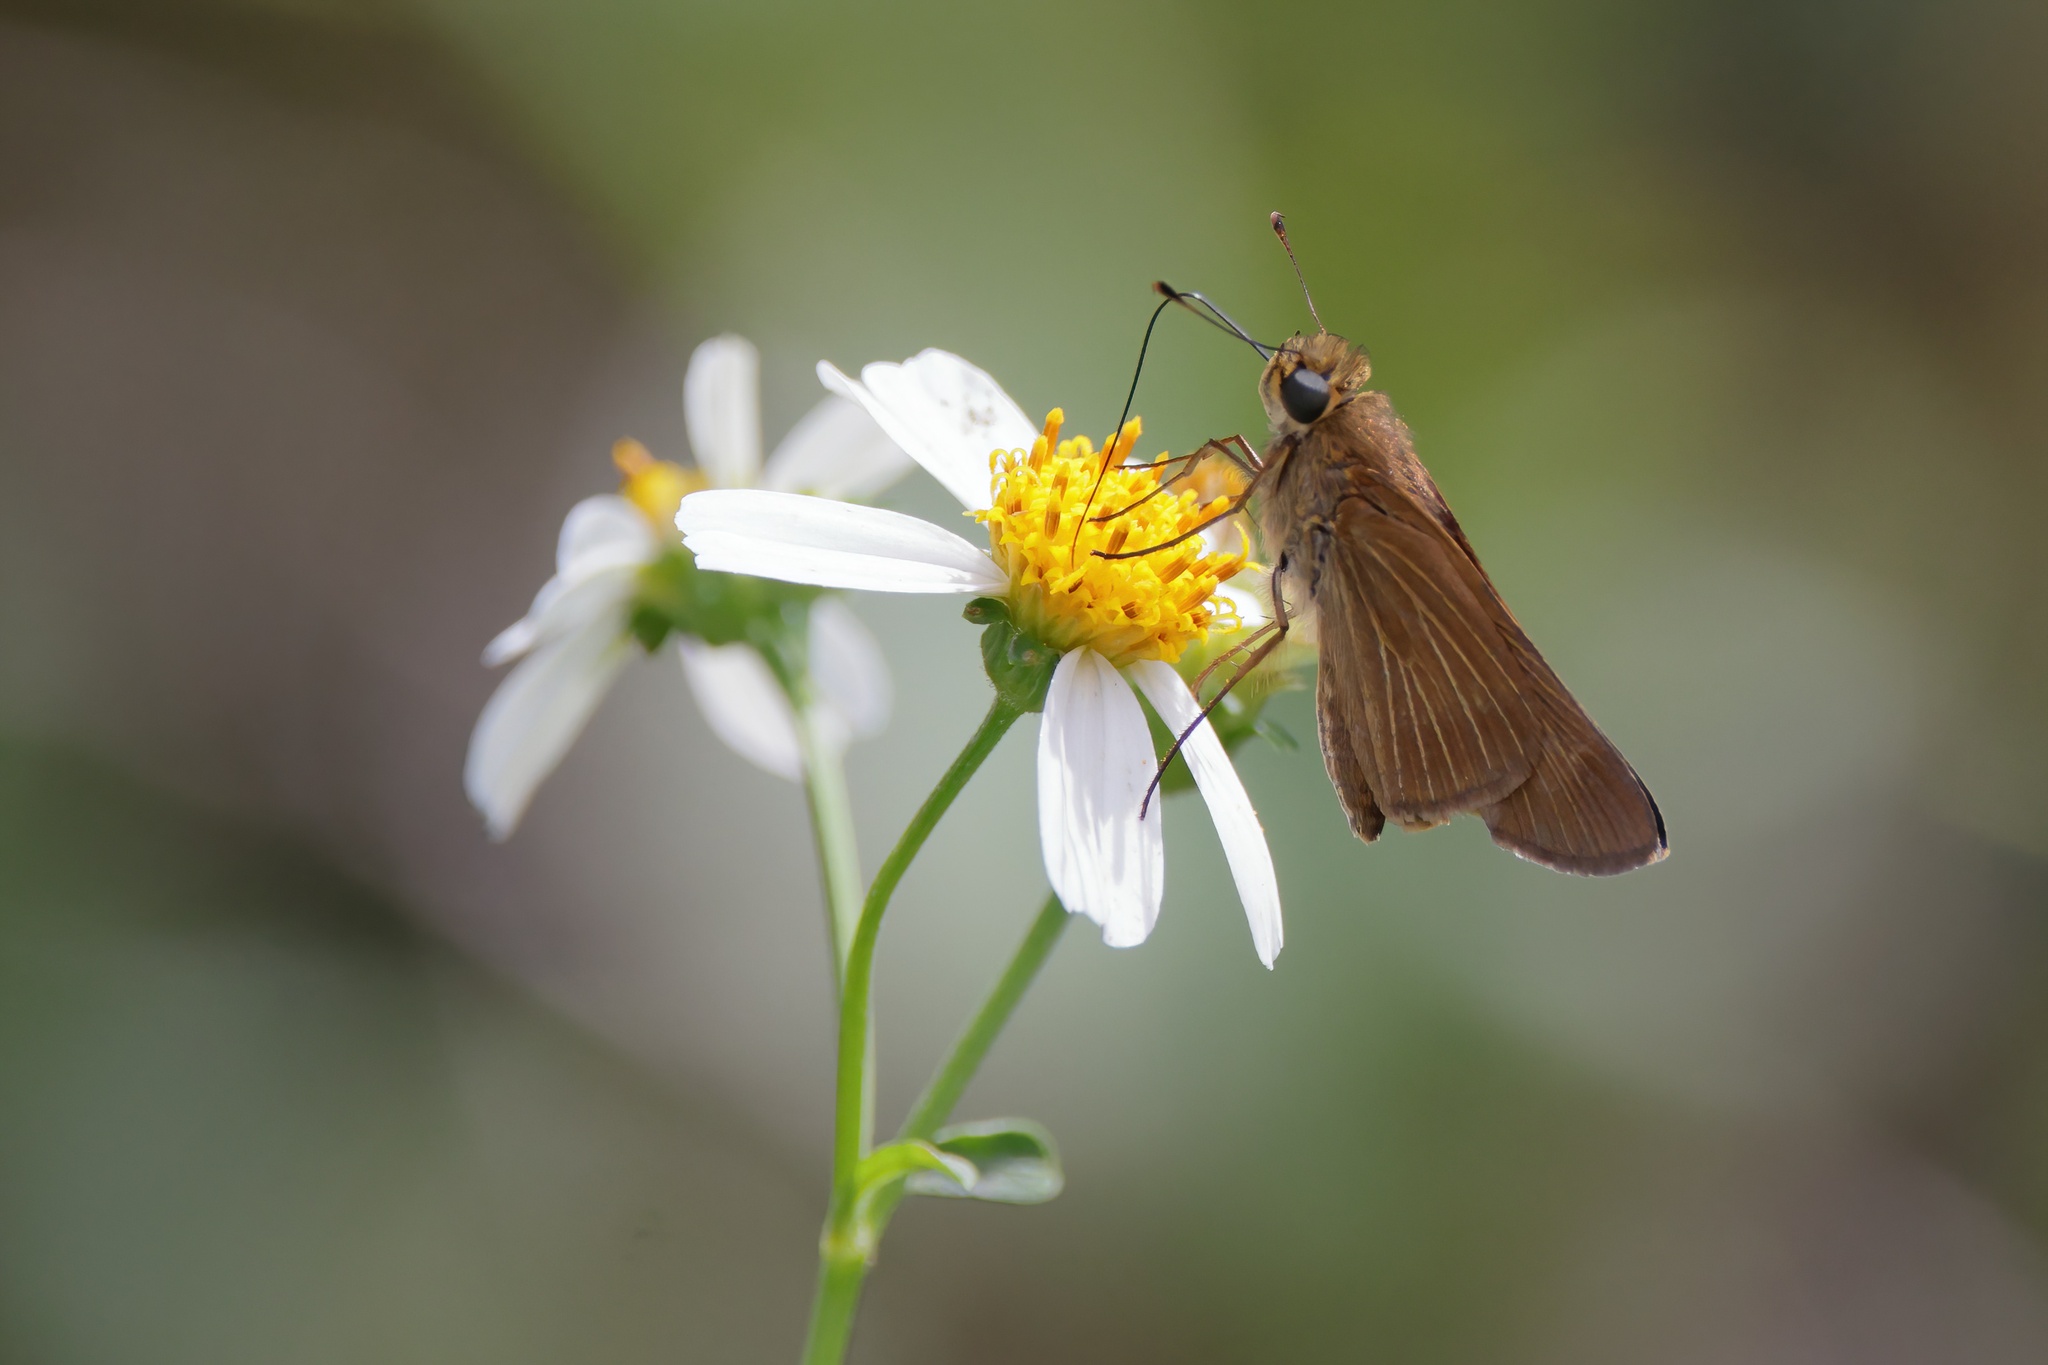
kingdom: Animalia
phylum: Arthropoda
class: Insecta
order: Lepidoptera
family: Hesperiidae
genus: Panoquina
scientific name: Panoquina ocola
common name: Ocola skipper
